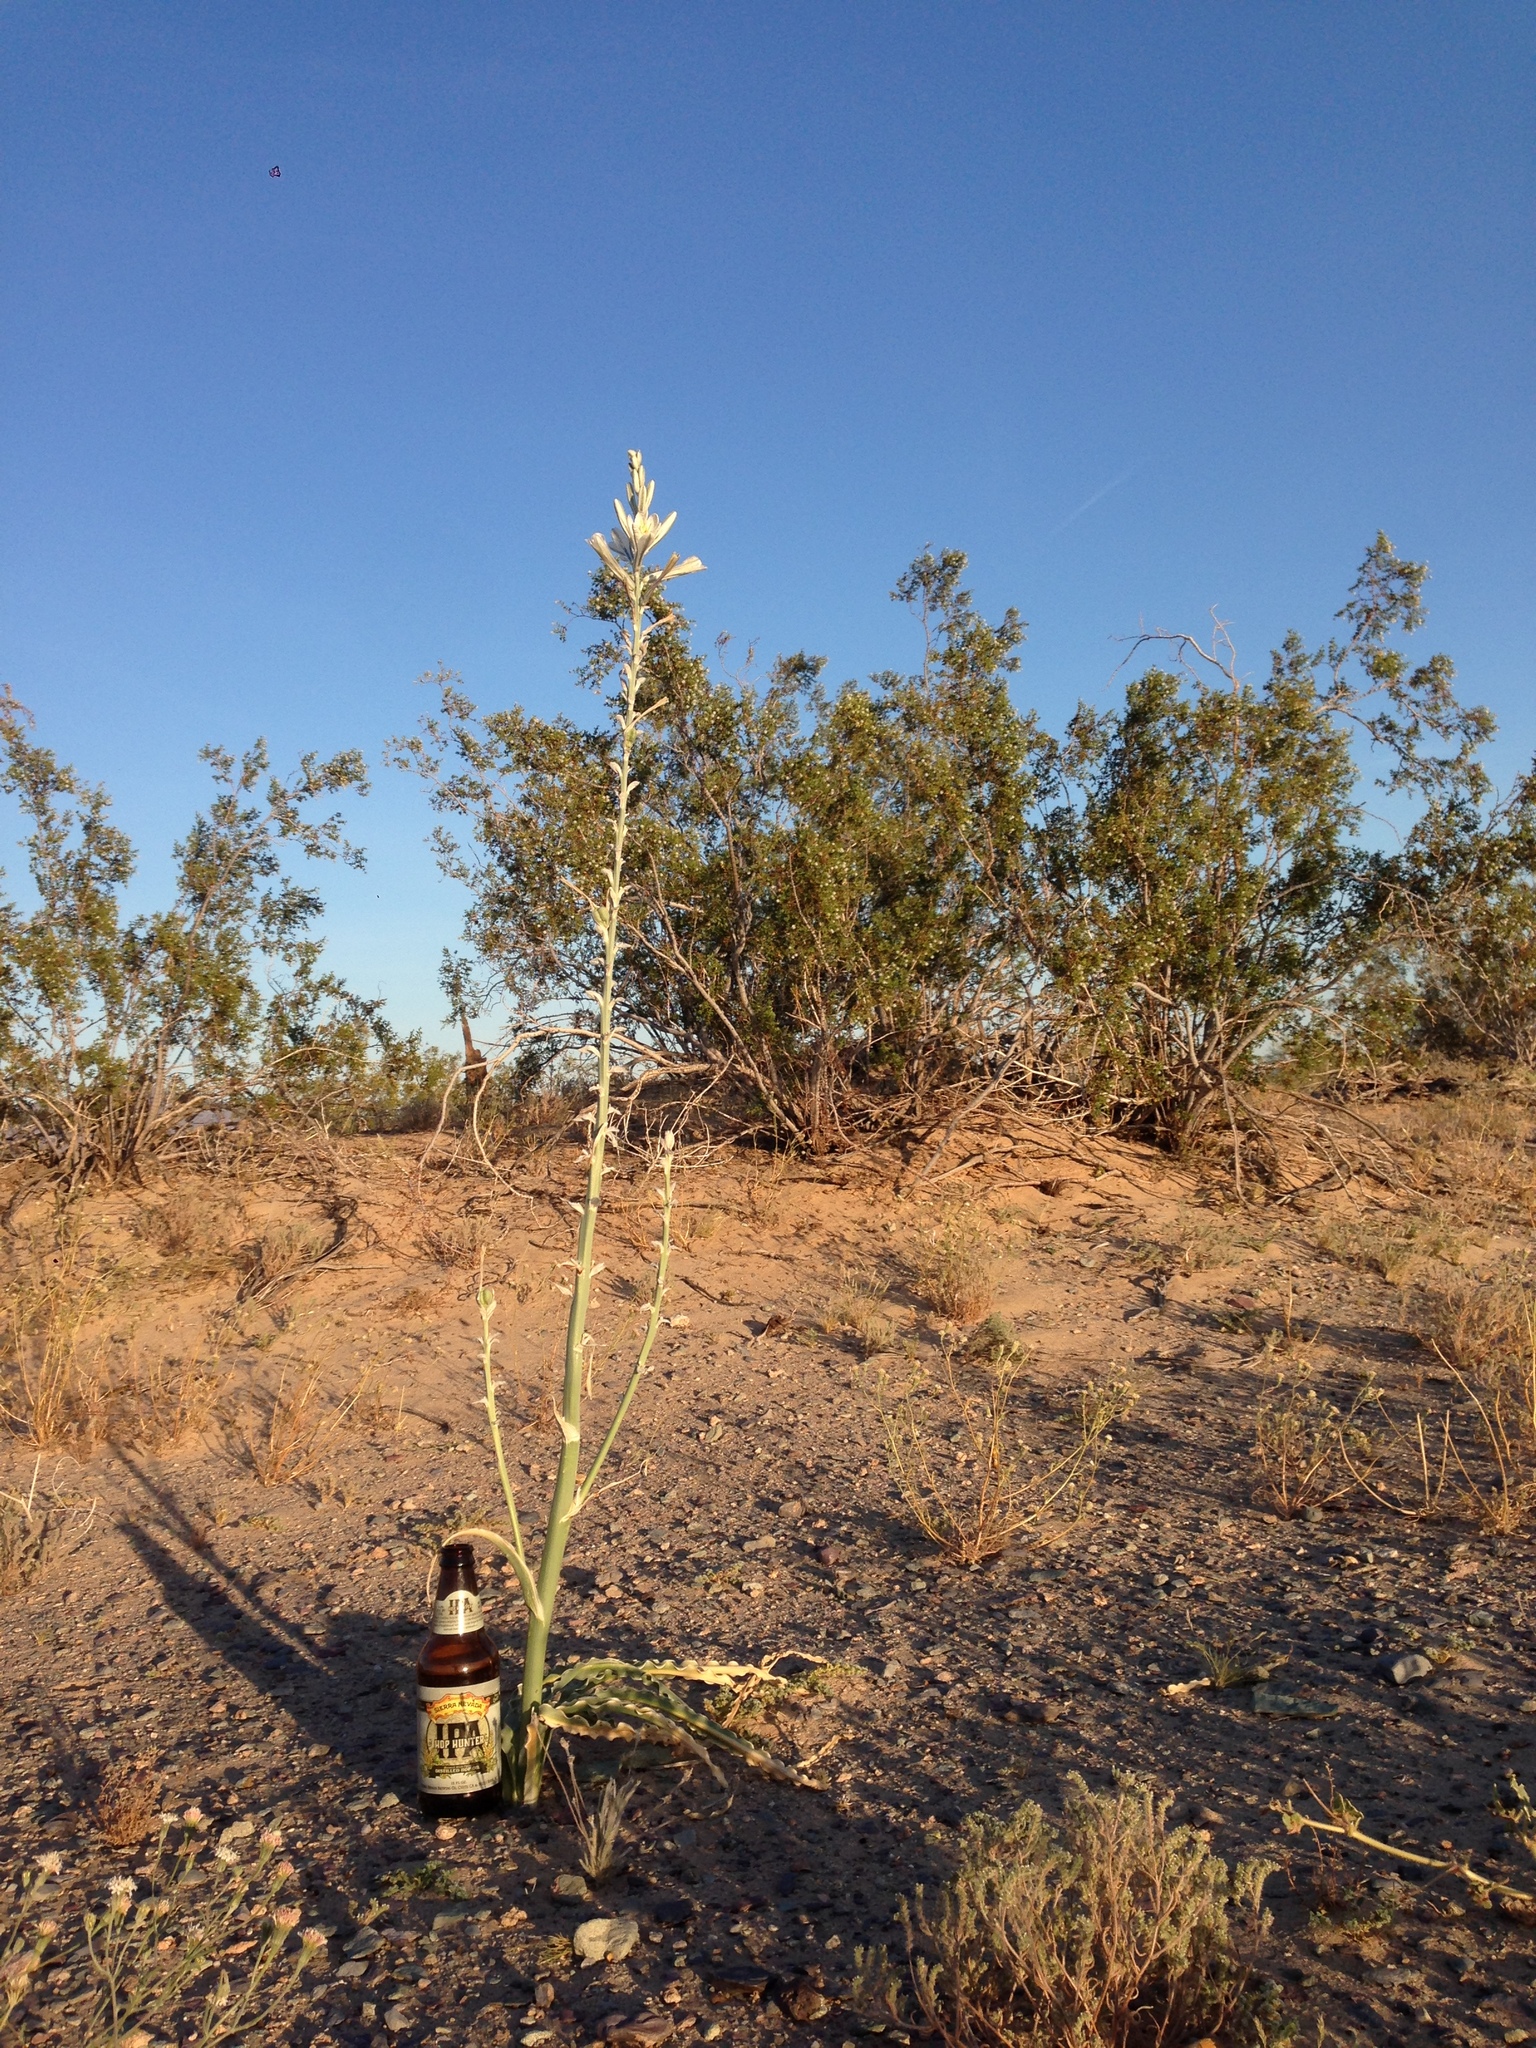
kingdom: Plantae
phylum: Tracheophyta
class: Magnoliopsida
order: Zygophyllales
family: Zygophyllaceae
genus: Larrea
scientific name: Larrea tridentata
